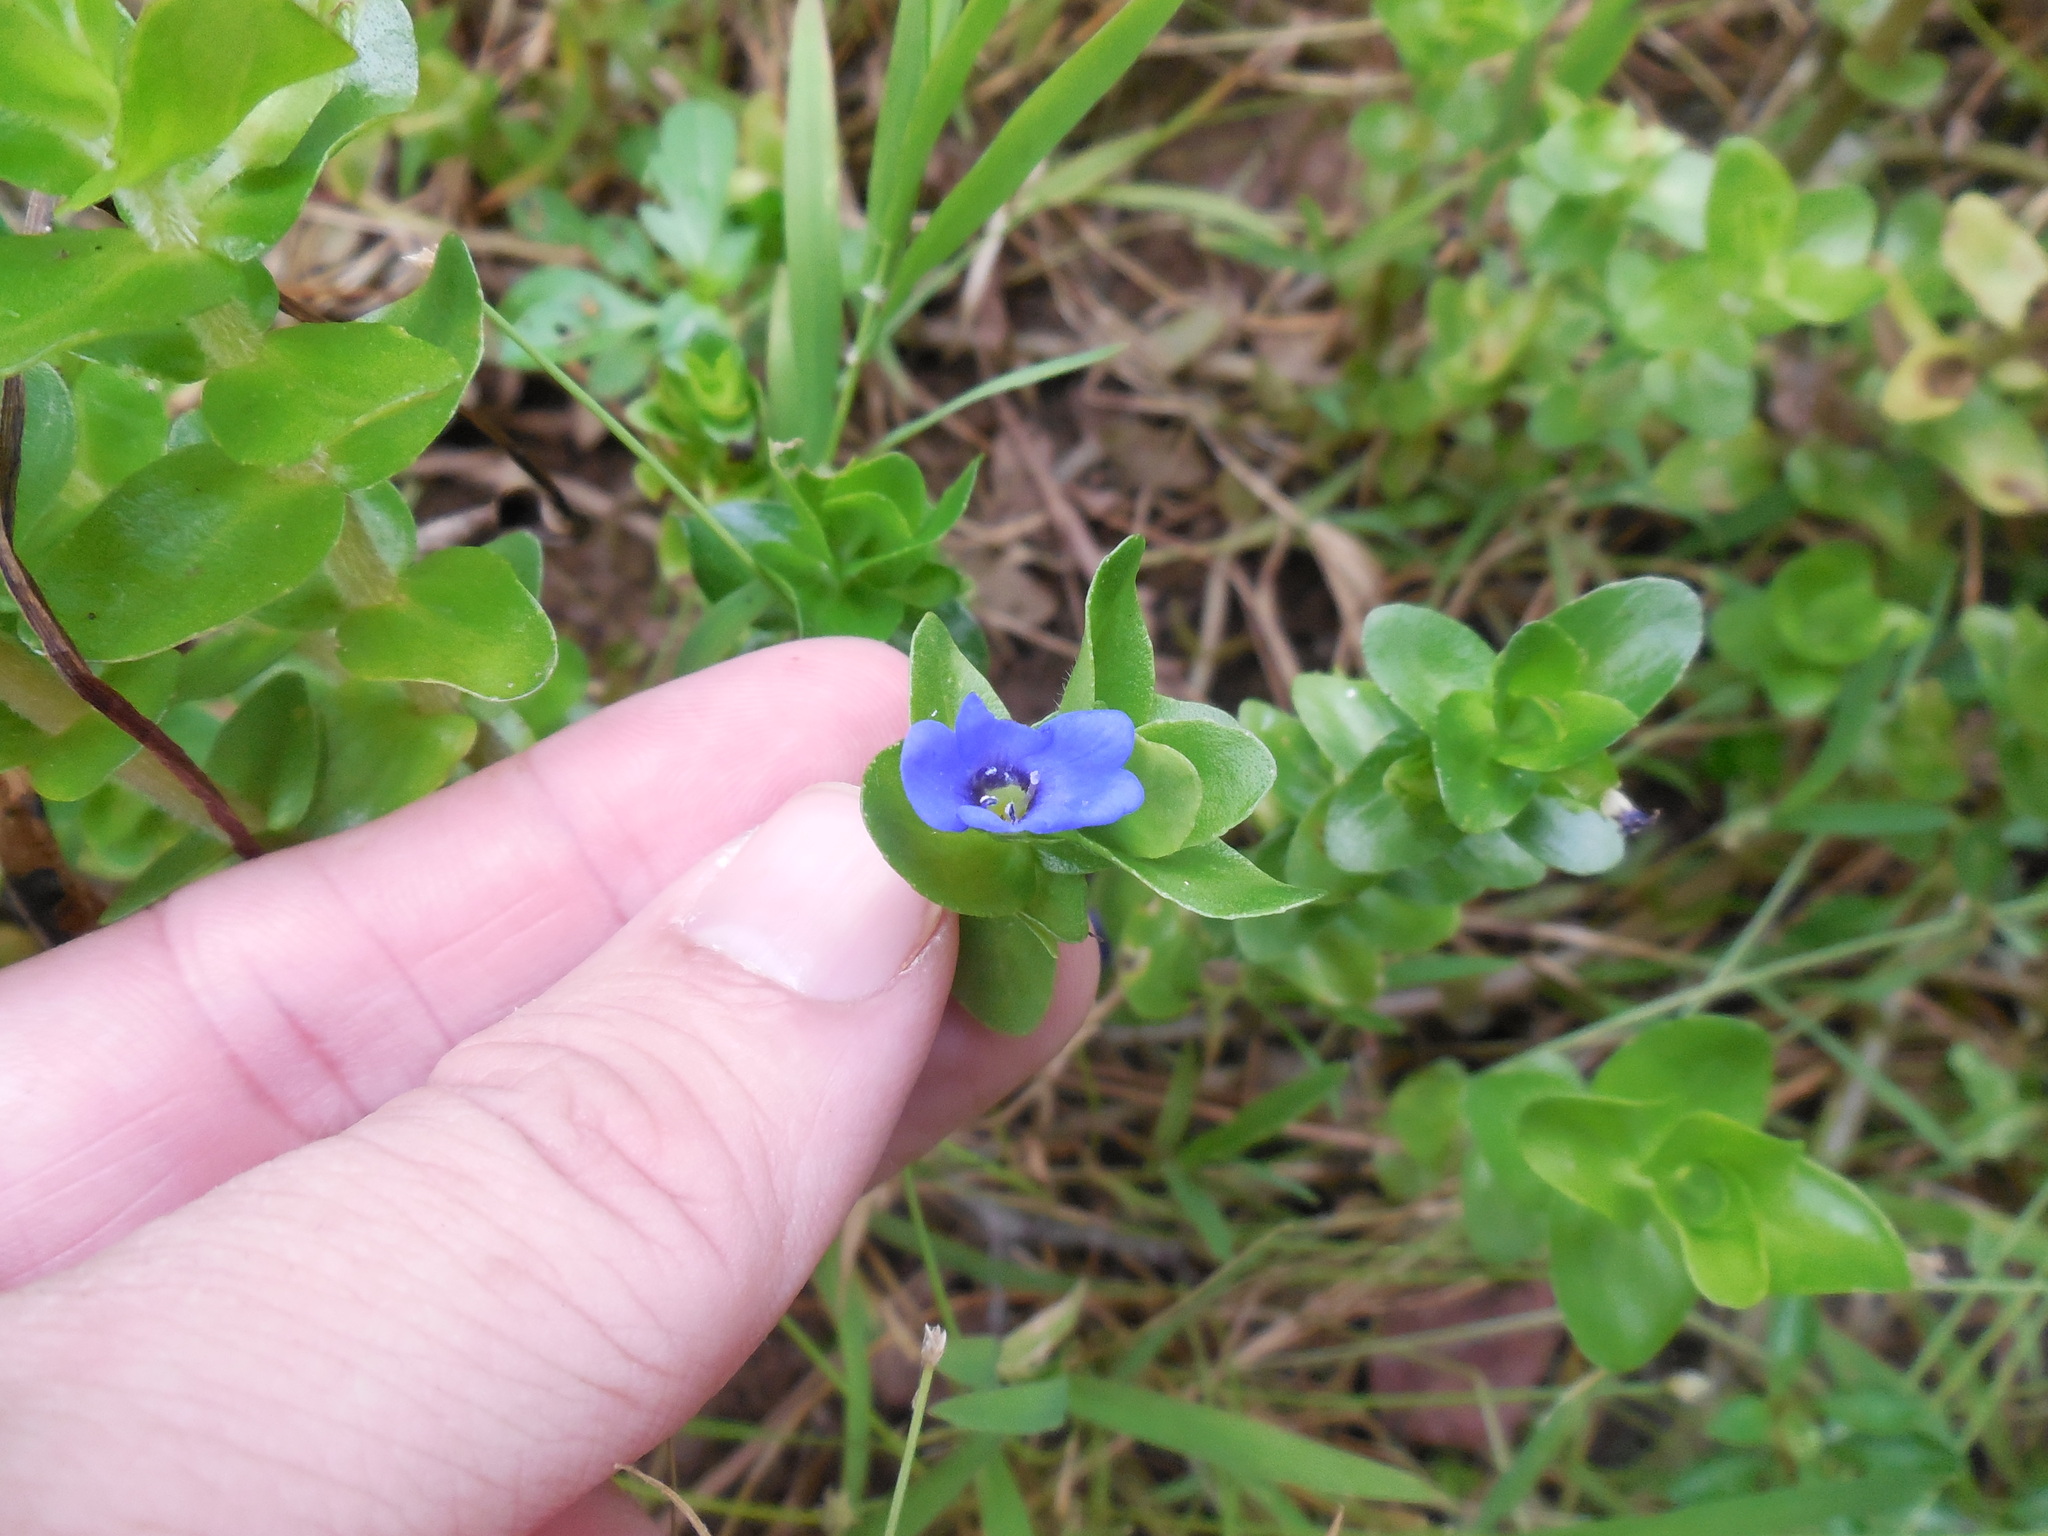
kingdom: Plantae
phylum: Tracheophyta
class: Magnoliopsida
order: Lamiales
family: Plantaginaceae
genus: Bacopa
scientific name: Bacopa caroliniana
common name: Lemon bacopa
